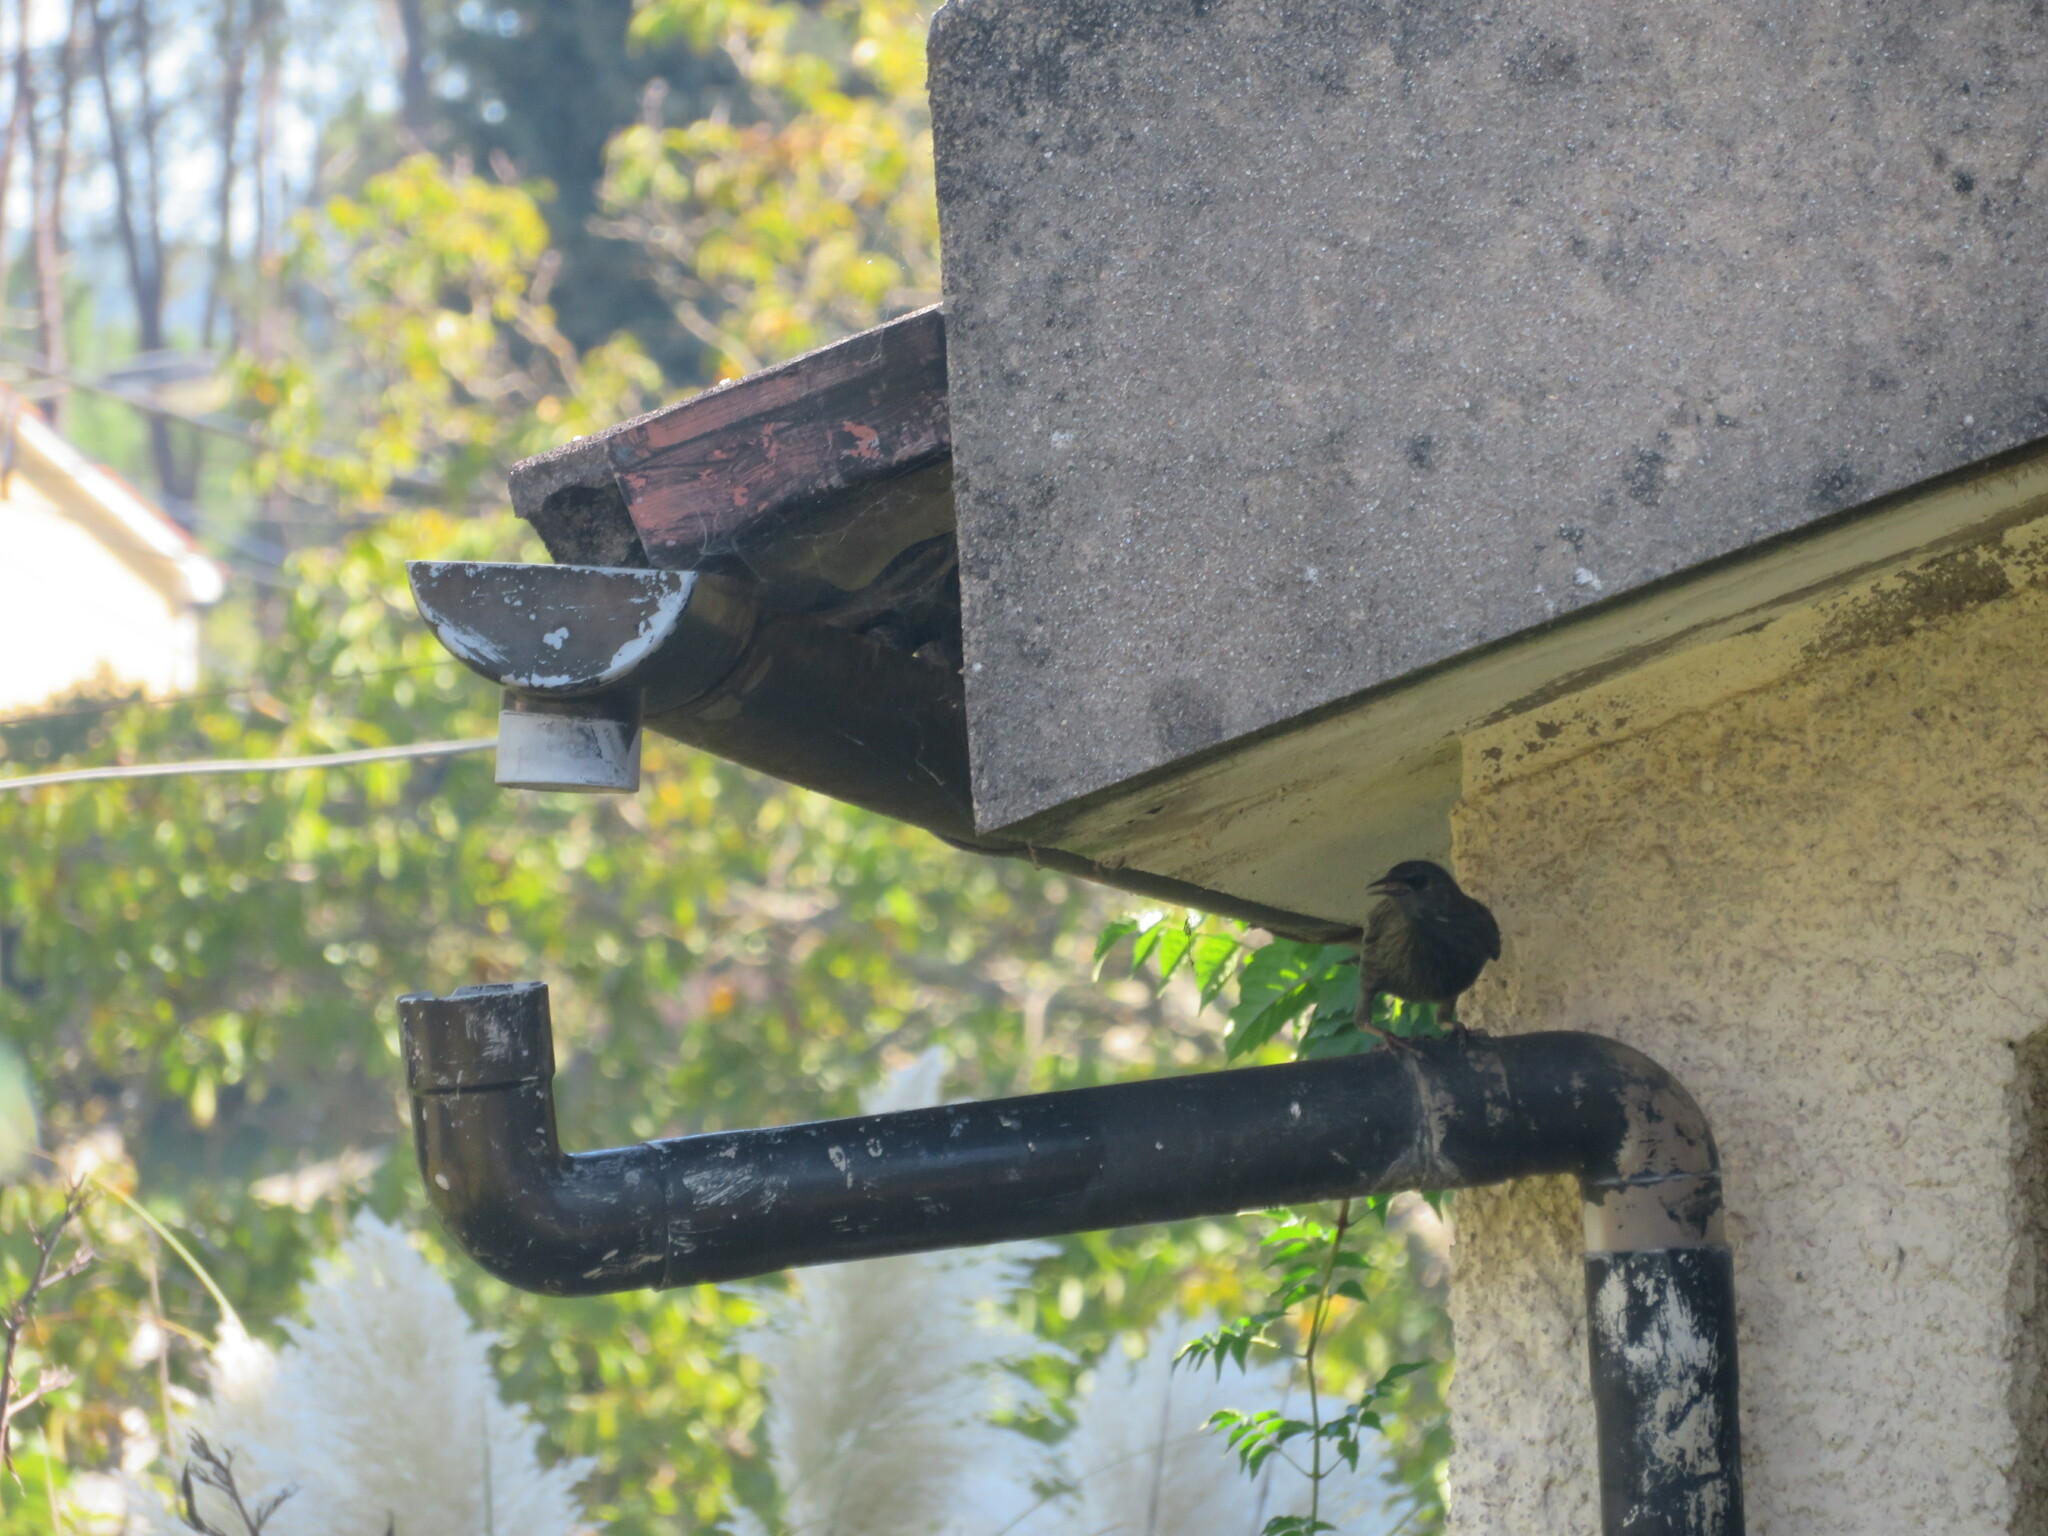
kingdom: Animalia
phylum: Chordata
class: Aves
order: Passeriformes
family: Sturnidae
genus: Sturnus
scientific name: Sturnus unicolor
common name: Spotless starling
